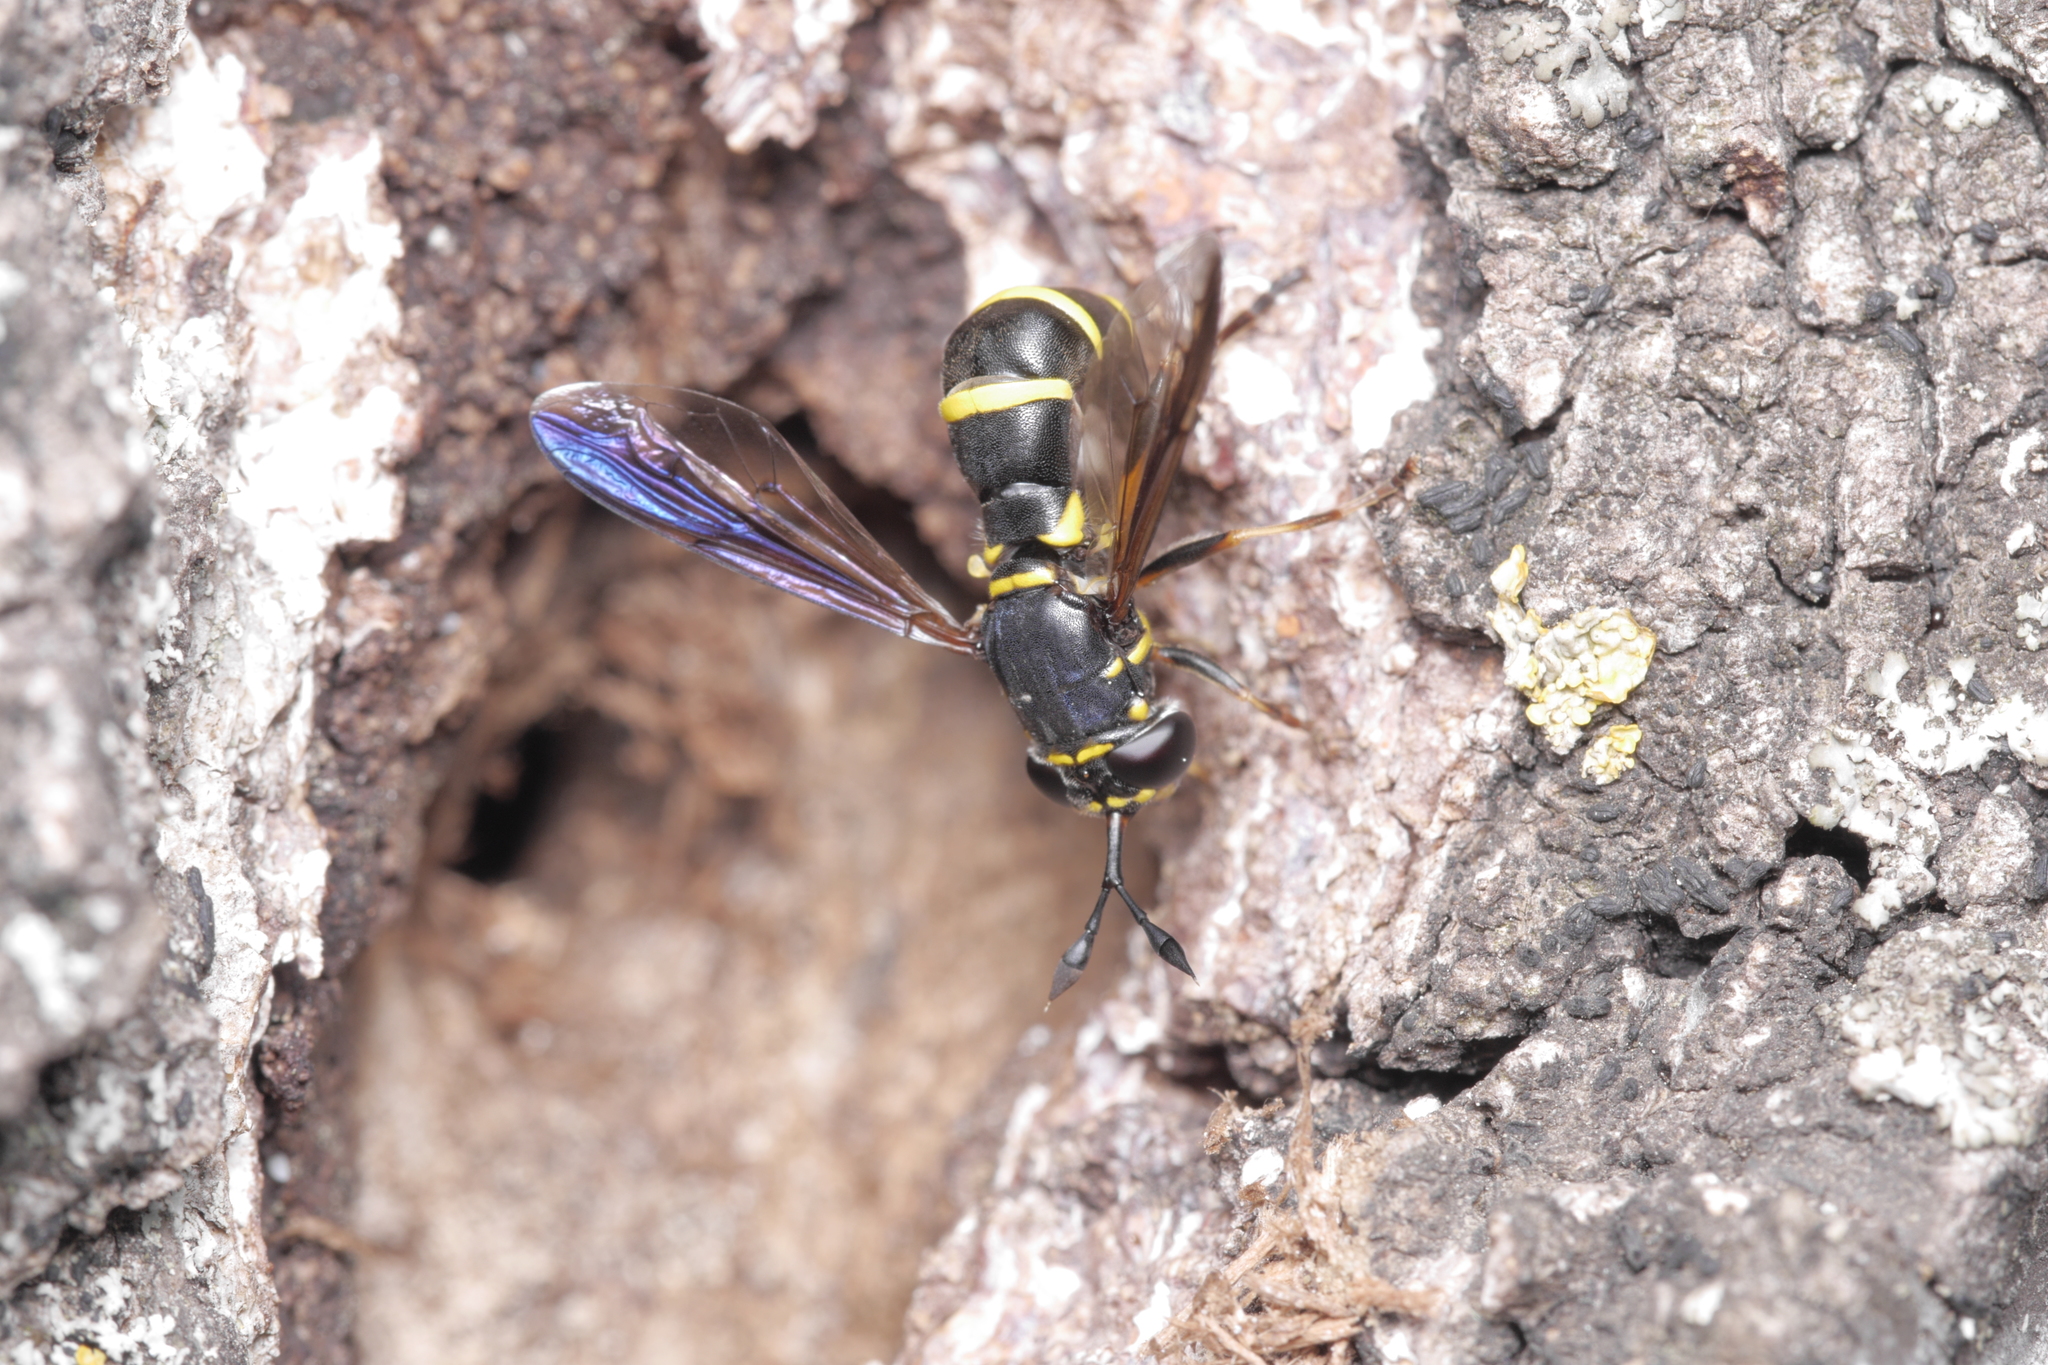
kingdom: Animalia
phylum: Arthropoda
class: Insecta
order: Diptera
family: Syrphidae
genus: Ceriana
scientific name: Ceriana conopsoides
